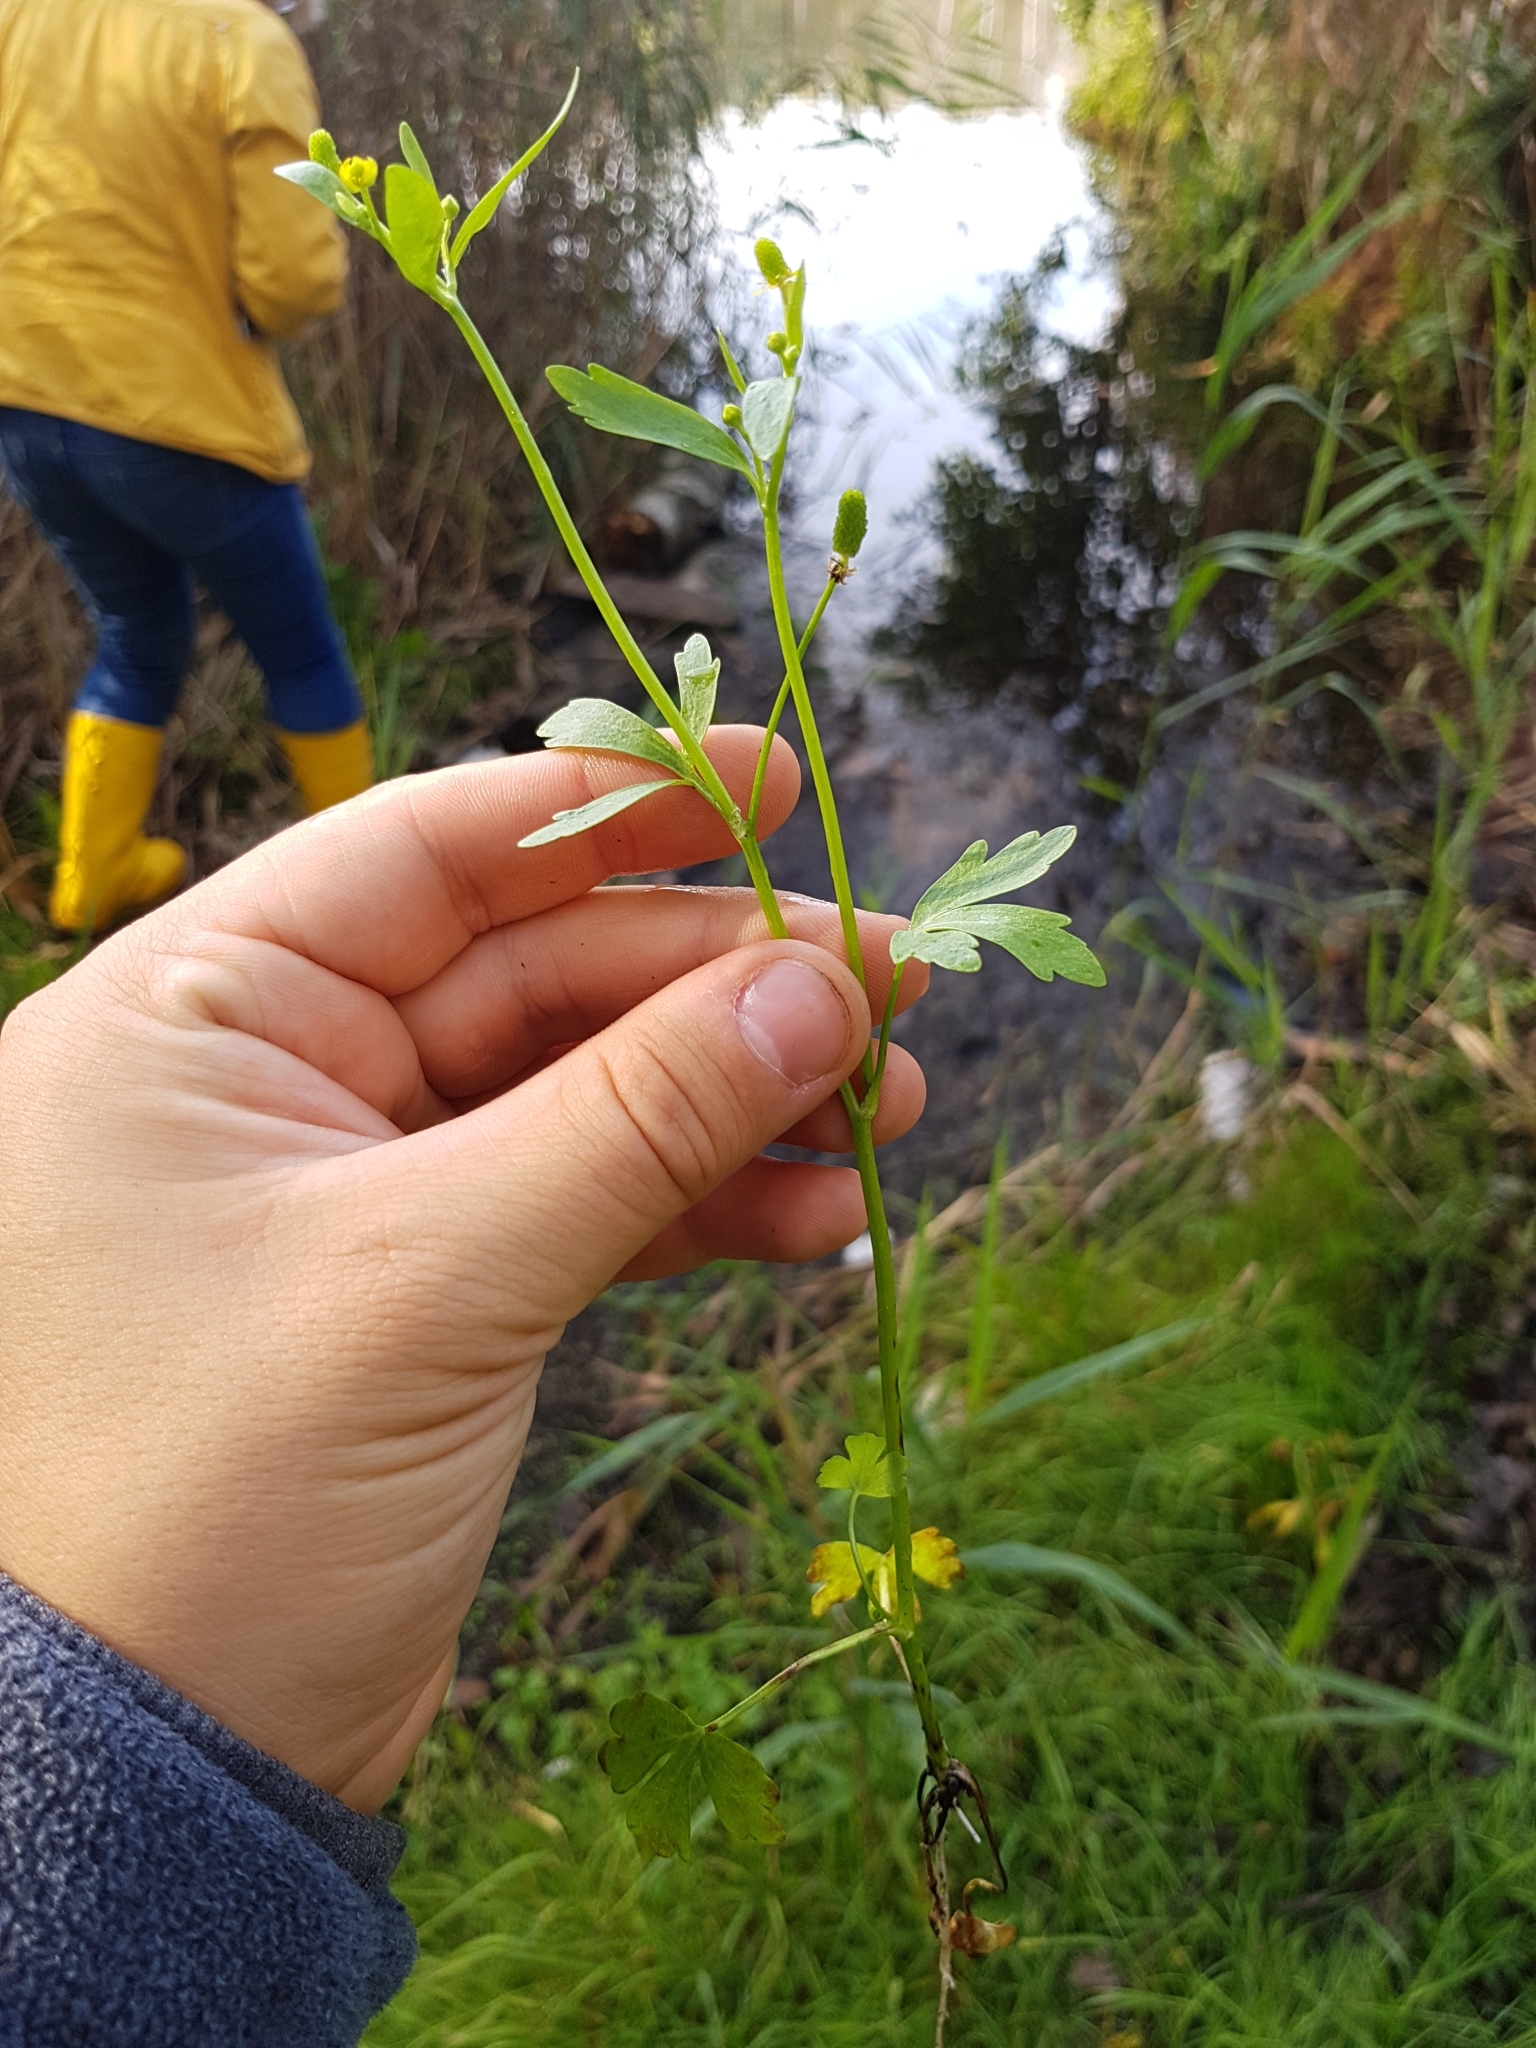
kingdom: Plantae
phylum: Tracheophyta
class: Magnoliopsida
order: Ranunculales
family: Ranunculaceae
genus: Ranunculus
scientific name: Ranunculus sceleratus
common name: Celery-leaved buttercup
